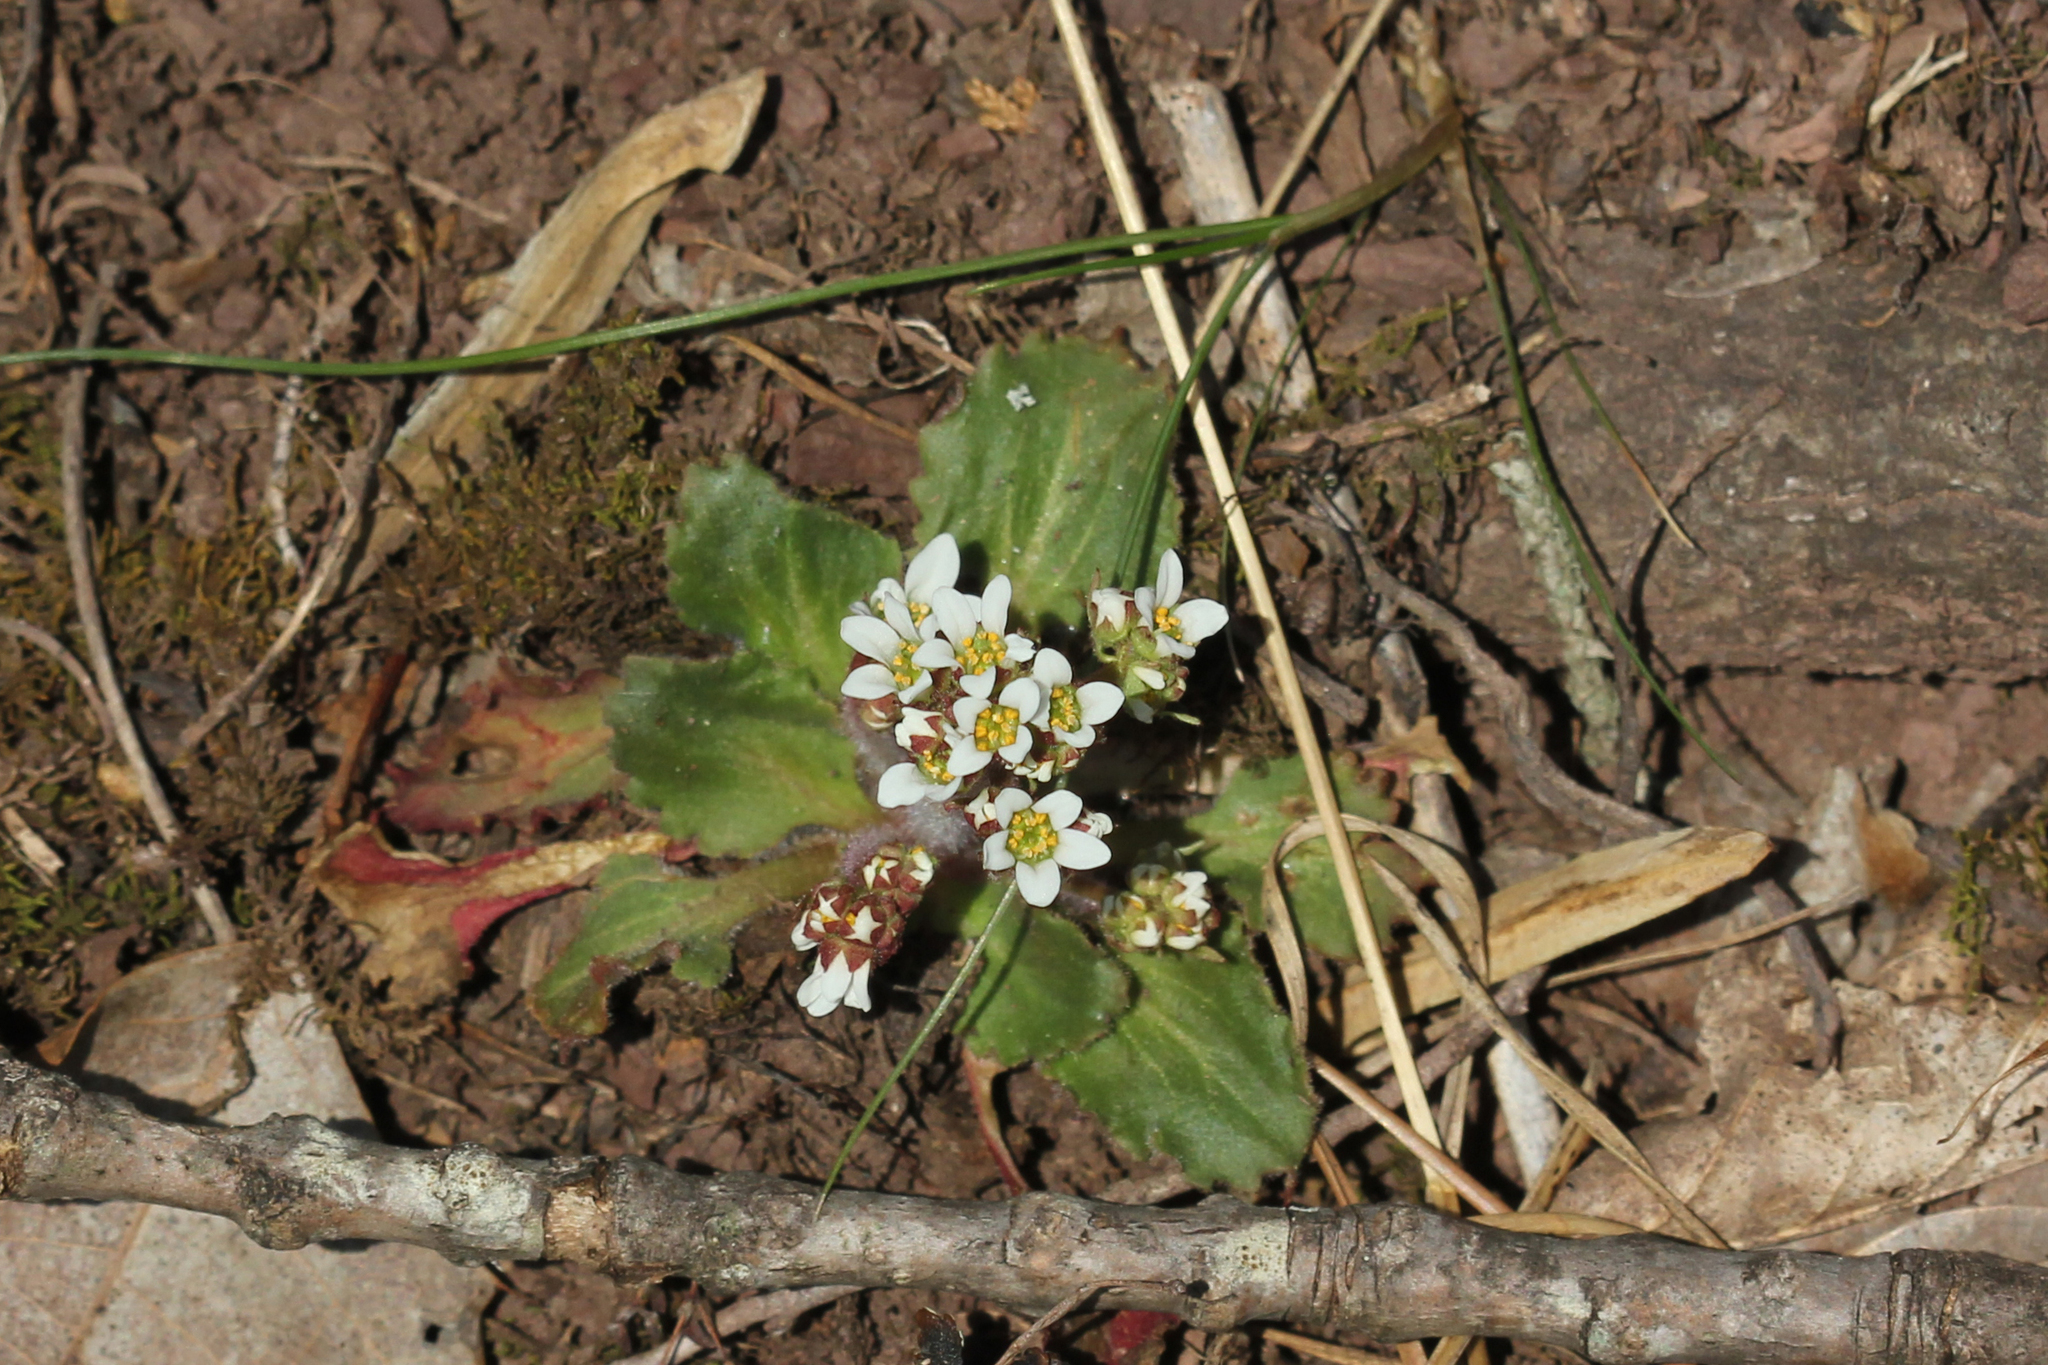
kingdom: Plantae
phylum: Tracheophyta
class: Magnoliopsida
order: Saxifragales
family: Saxifragaceae
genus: Micranthes
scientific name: Micranthes virginiensis
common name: Early saxifrage
